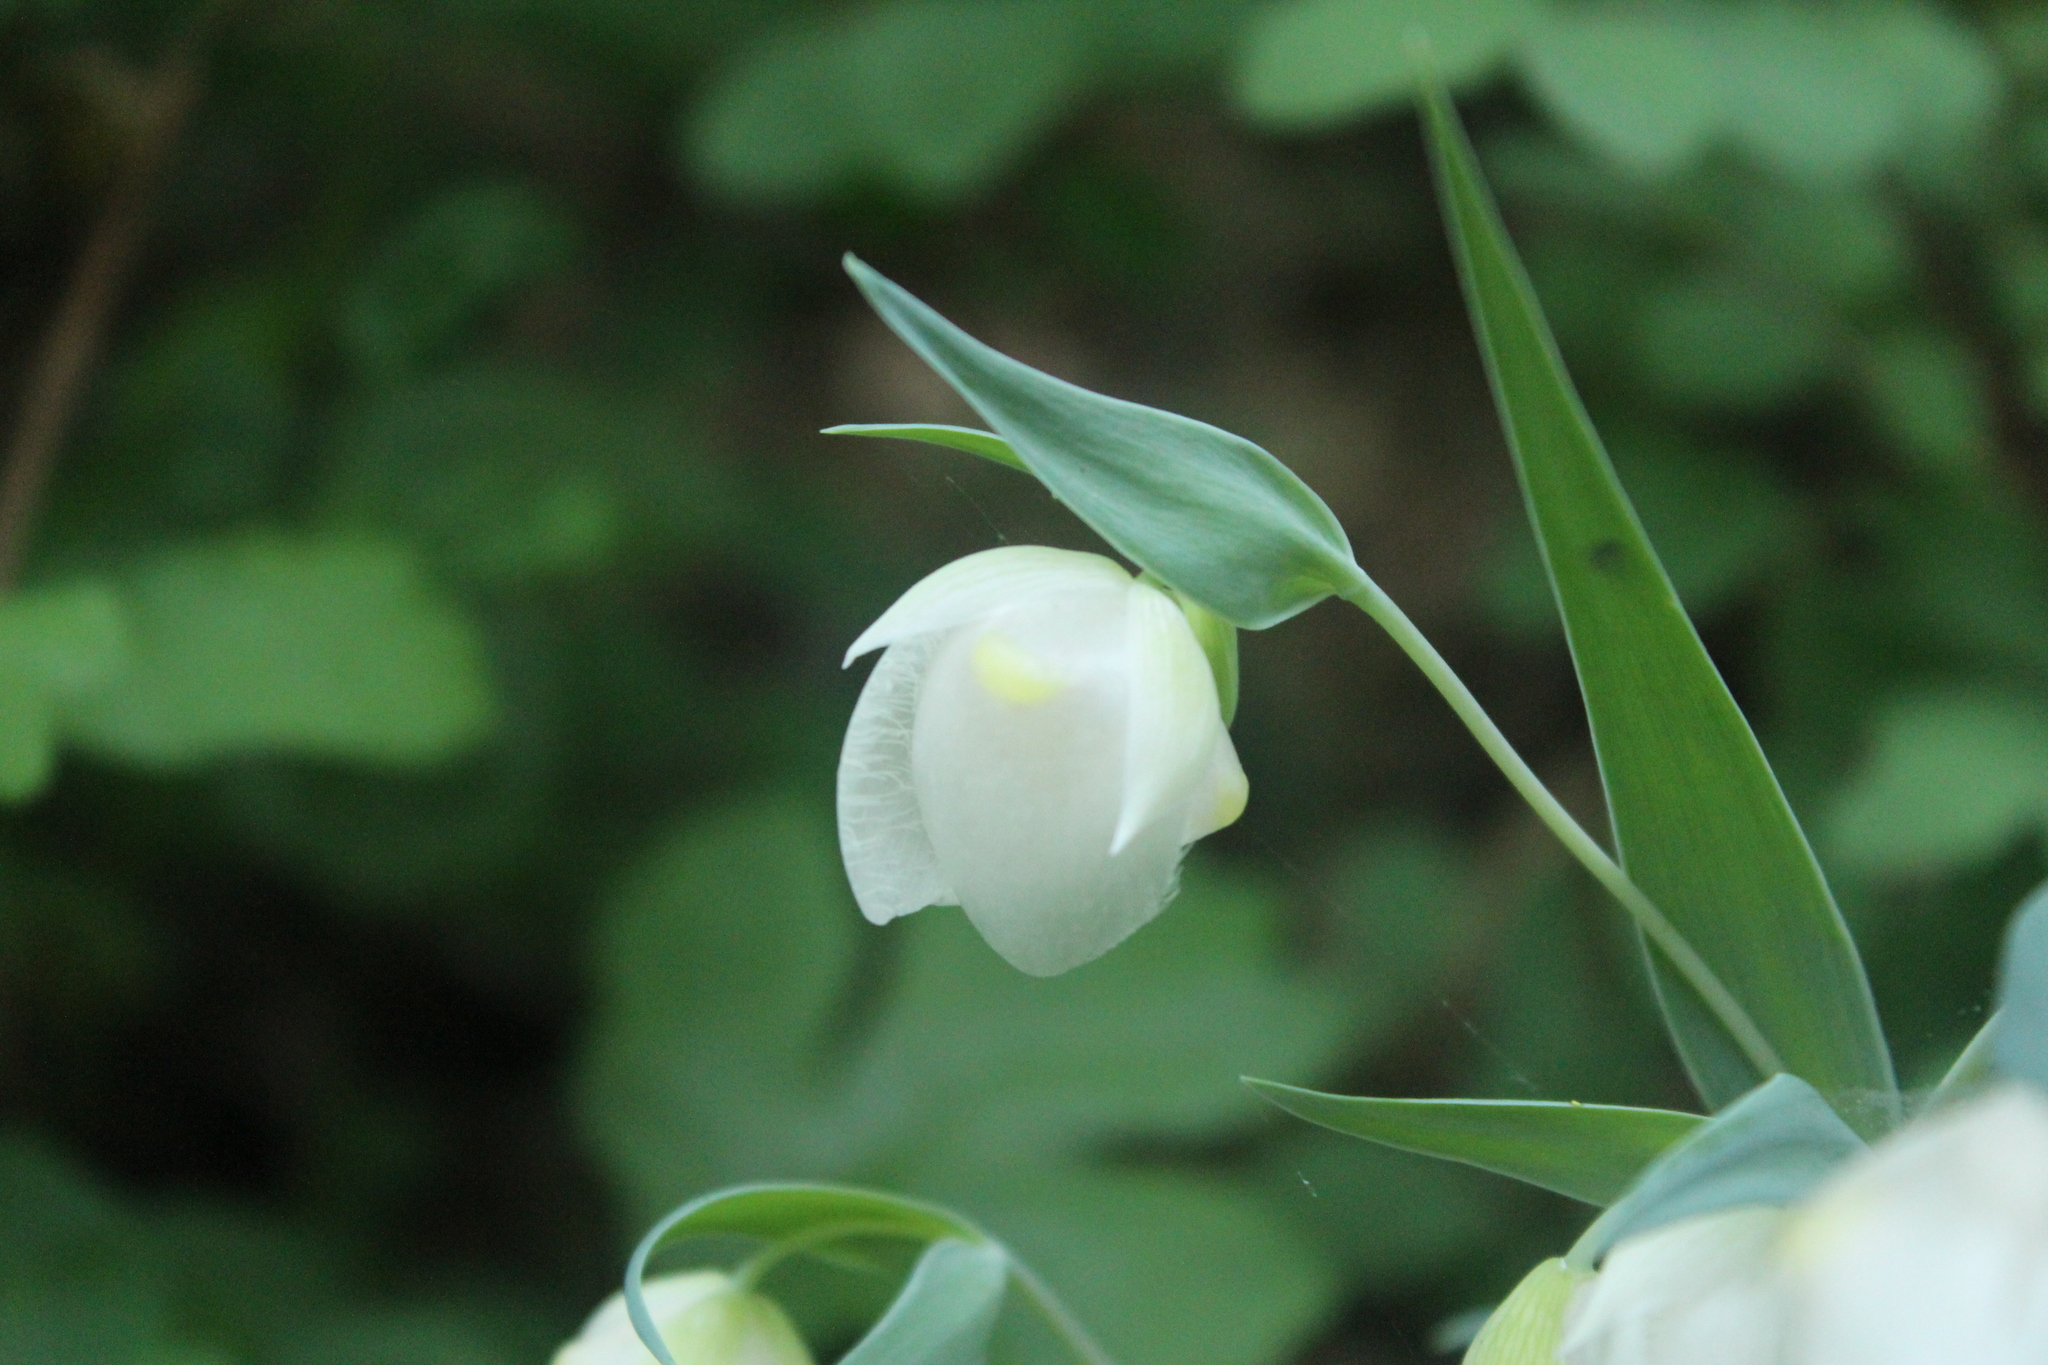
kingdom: Plantae
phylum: Tracheophyta
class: Liliopsida
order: Liliales
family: Liliaceae
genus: Calochortus
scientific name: Calochortus albus
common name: Fairy-lantern
